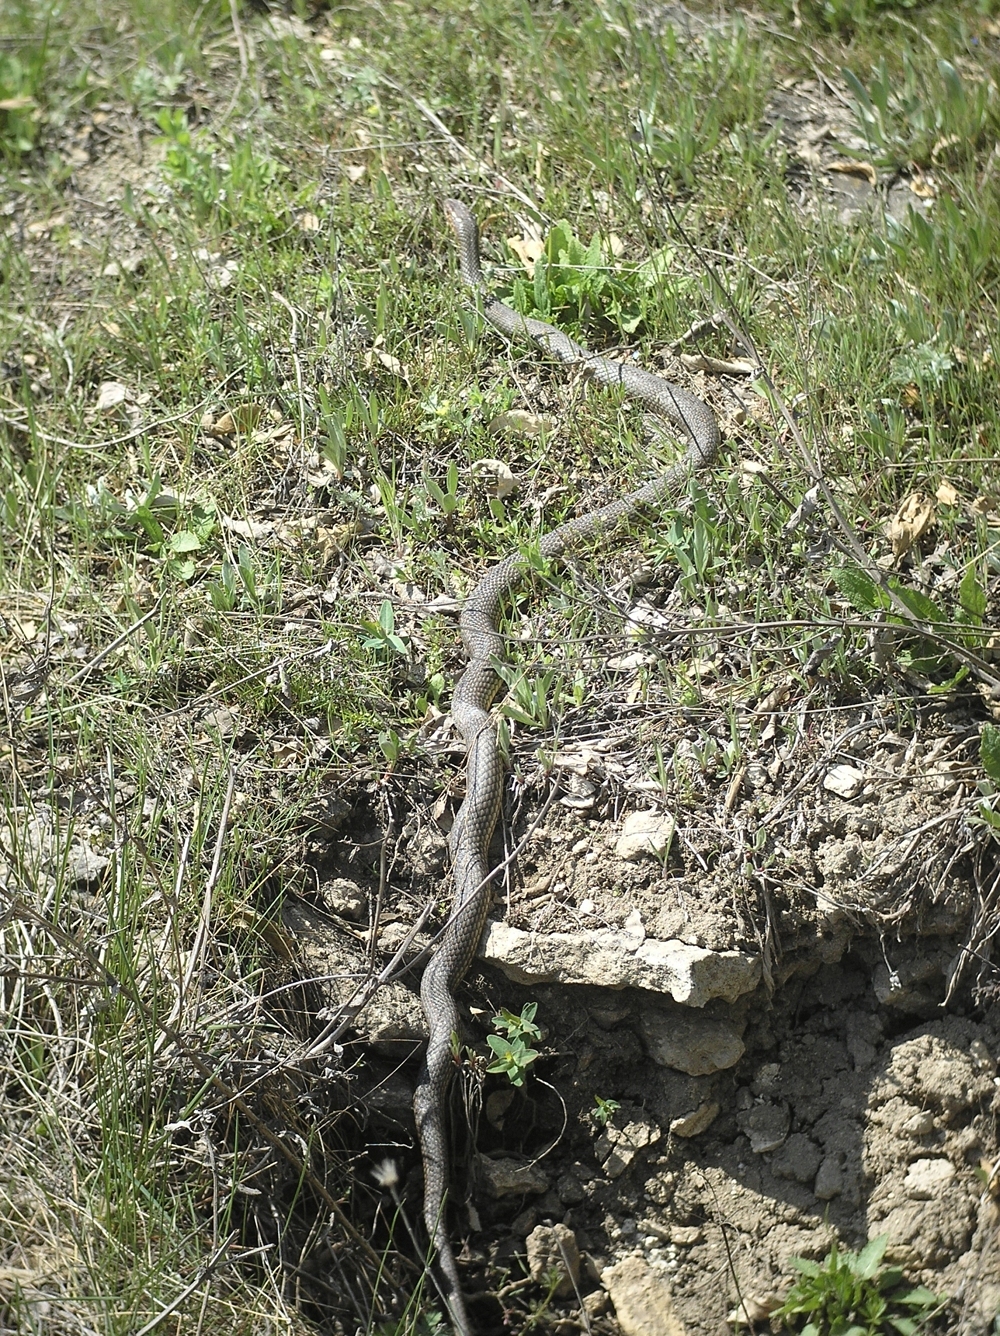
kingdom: Animalia
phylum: Chordata
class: Squamata
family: Colubridae
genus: Dolichophis
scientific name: Dolichophis caspius
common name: Large whip snake
